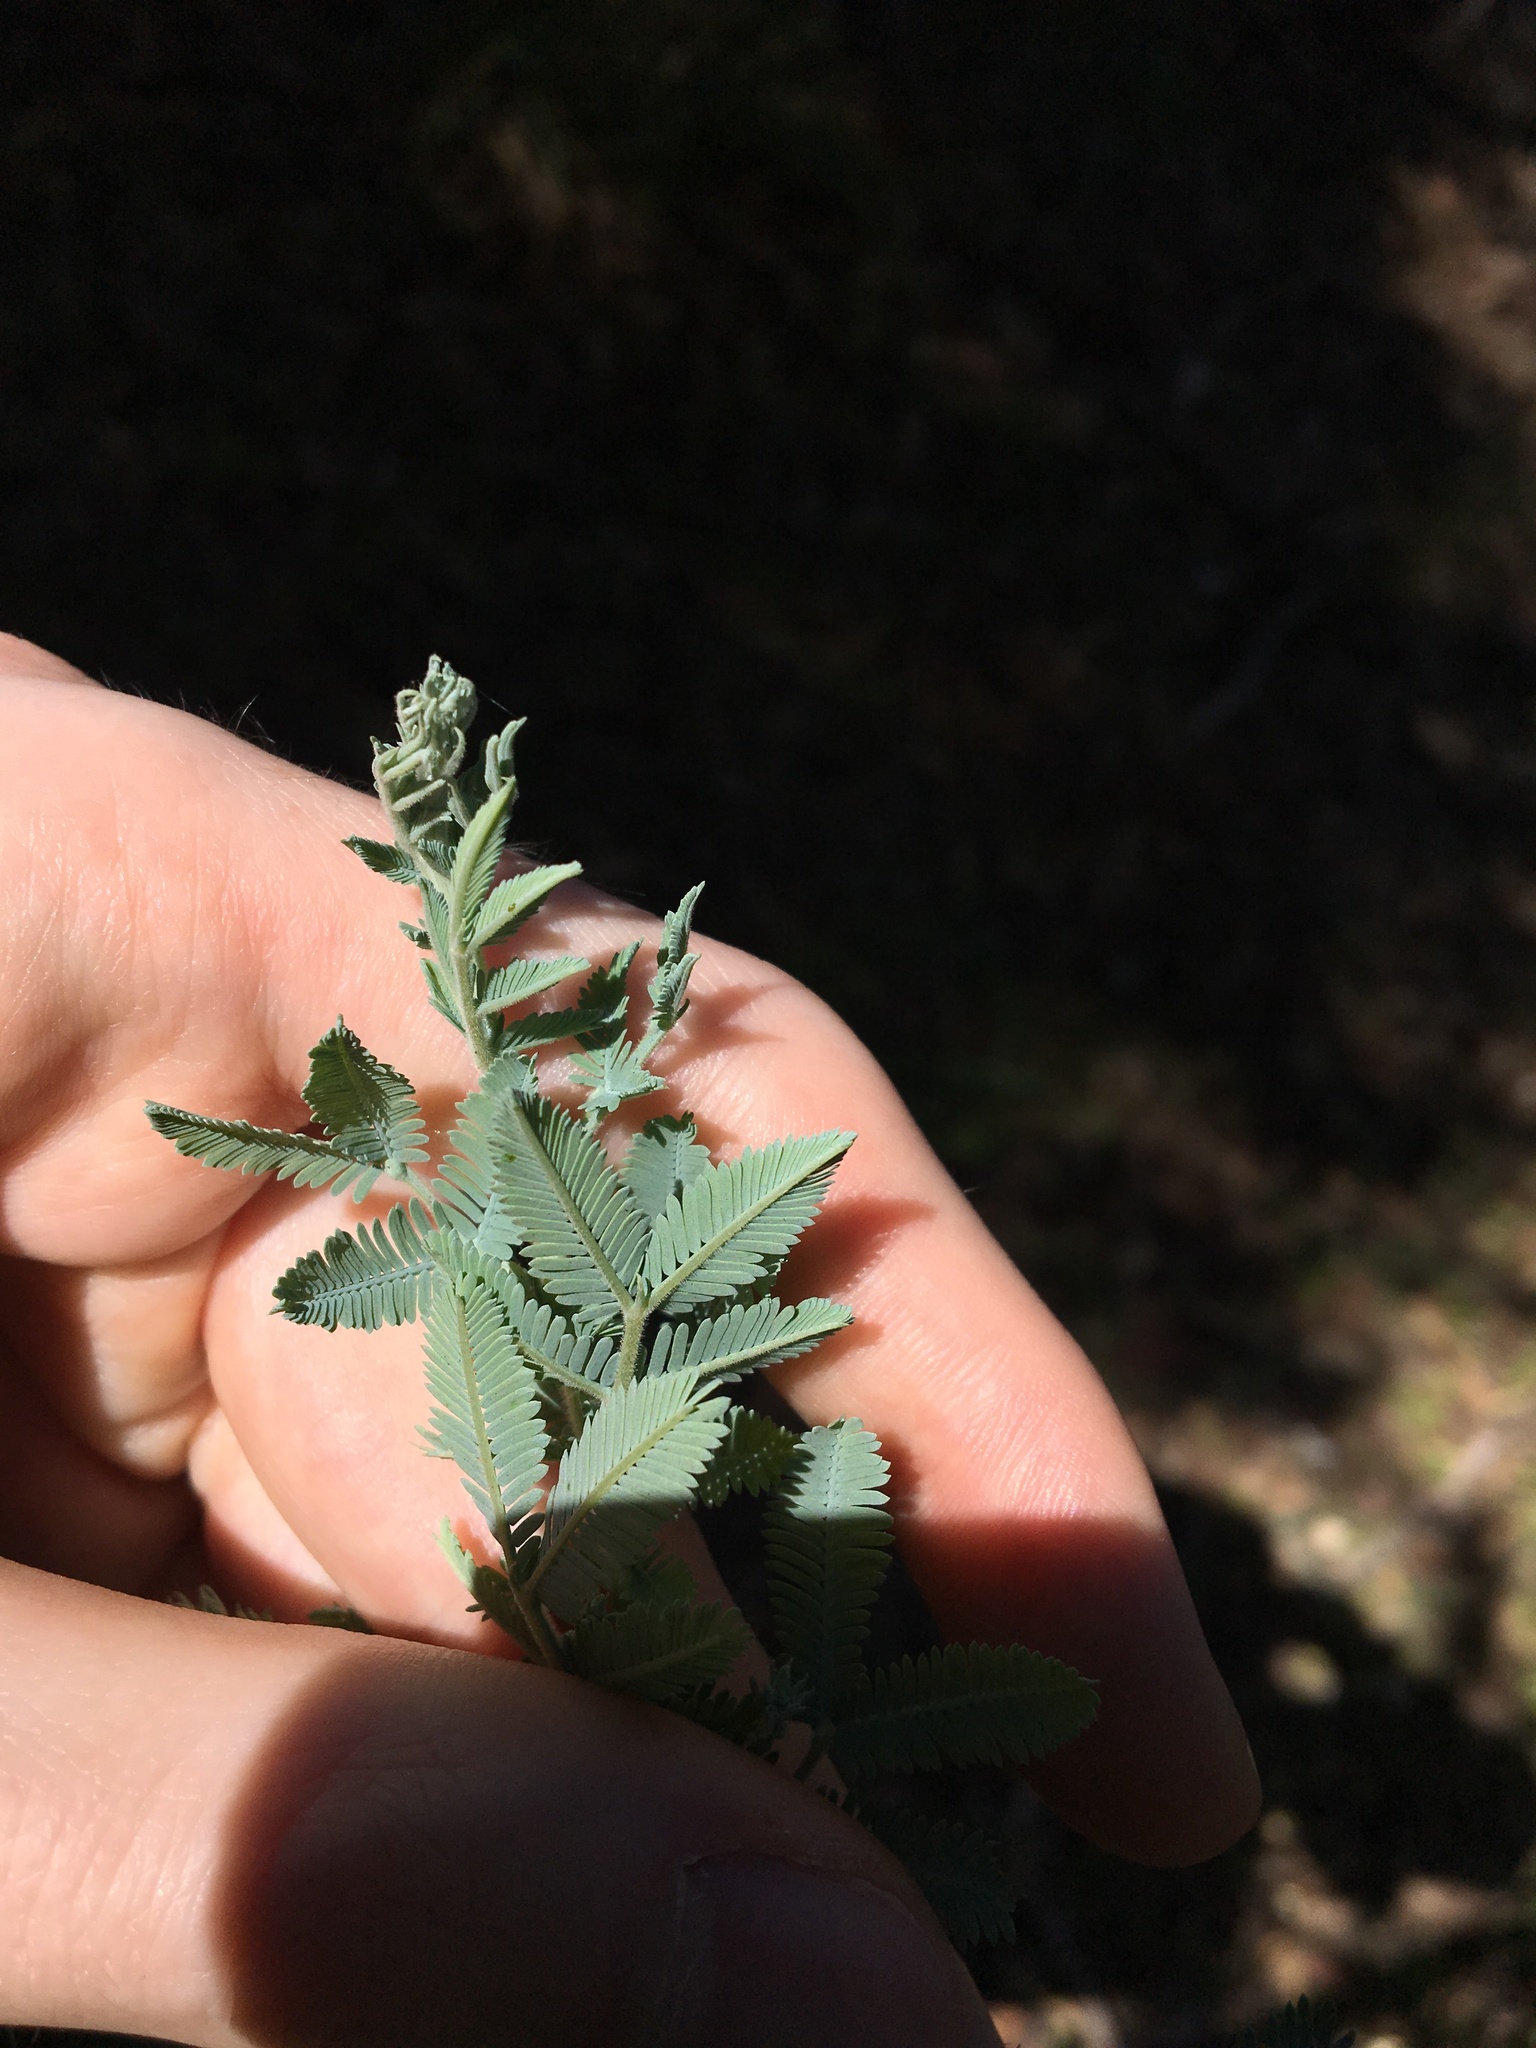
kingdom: Plantae
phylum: Tracheophyta
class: Magnoliopsida
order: Fabales
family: Fabaceae
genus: Acacia
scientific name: Acacia baileyana
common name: Cootamundra wattle
